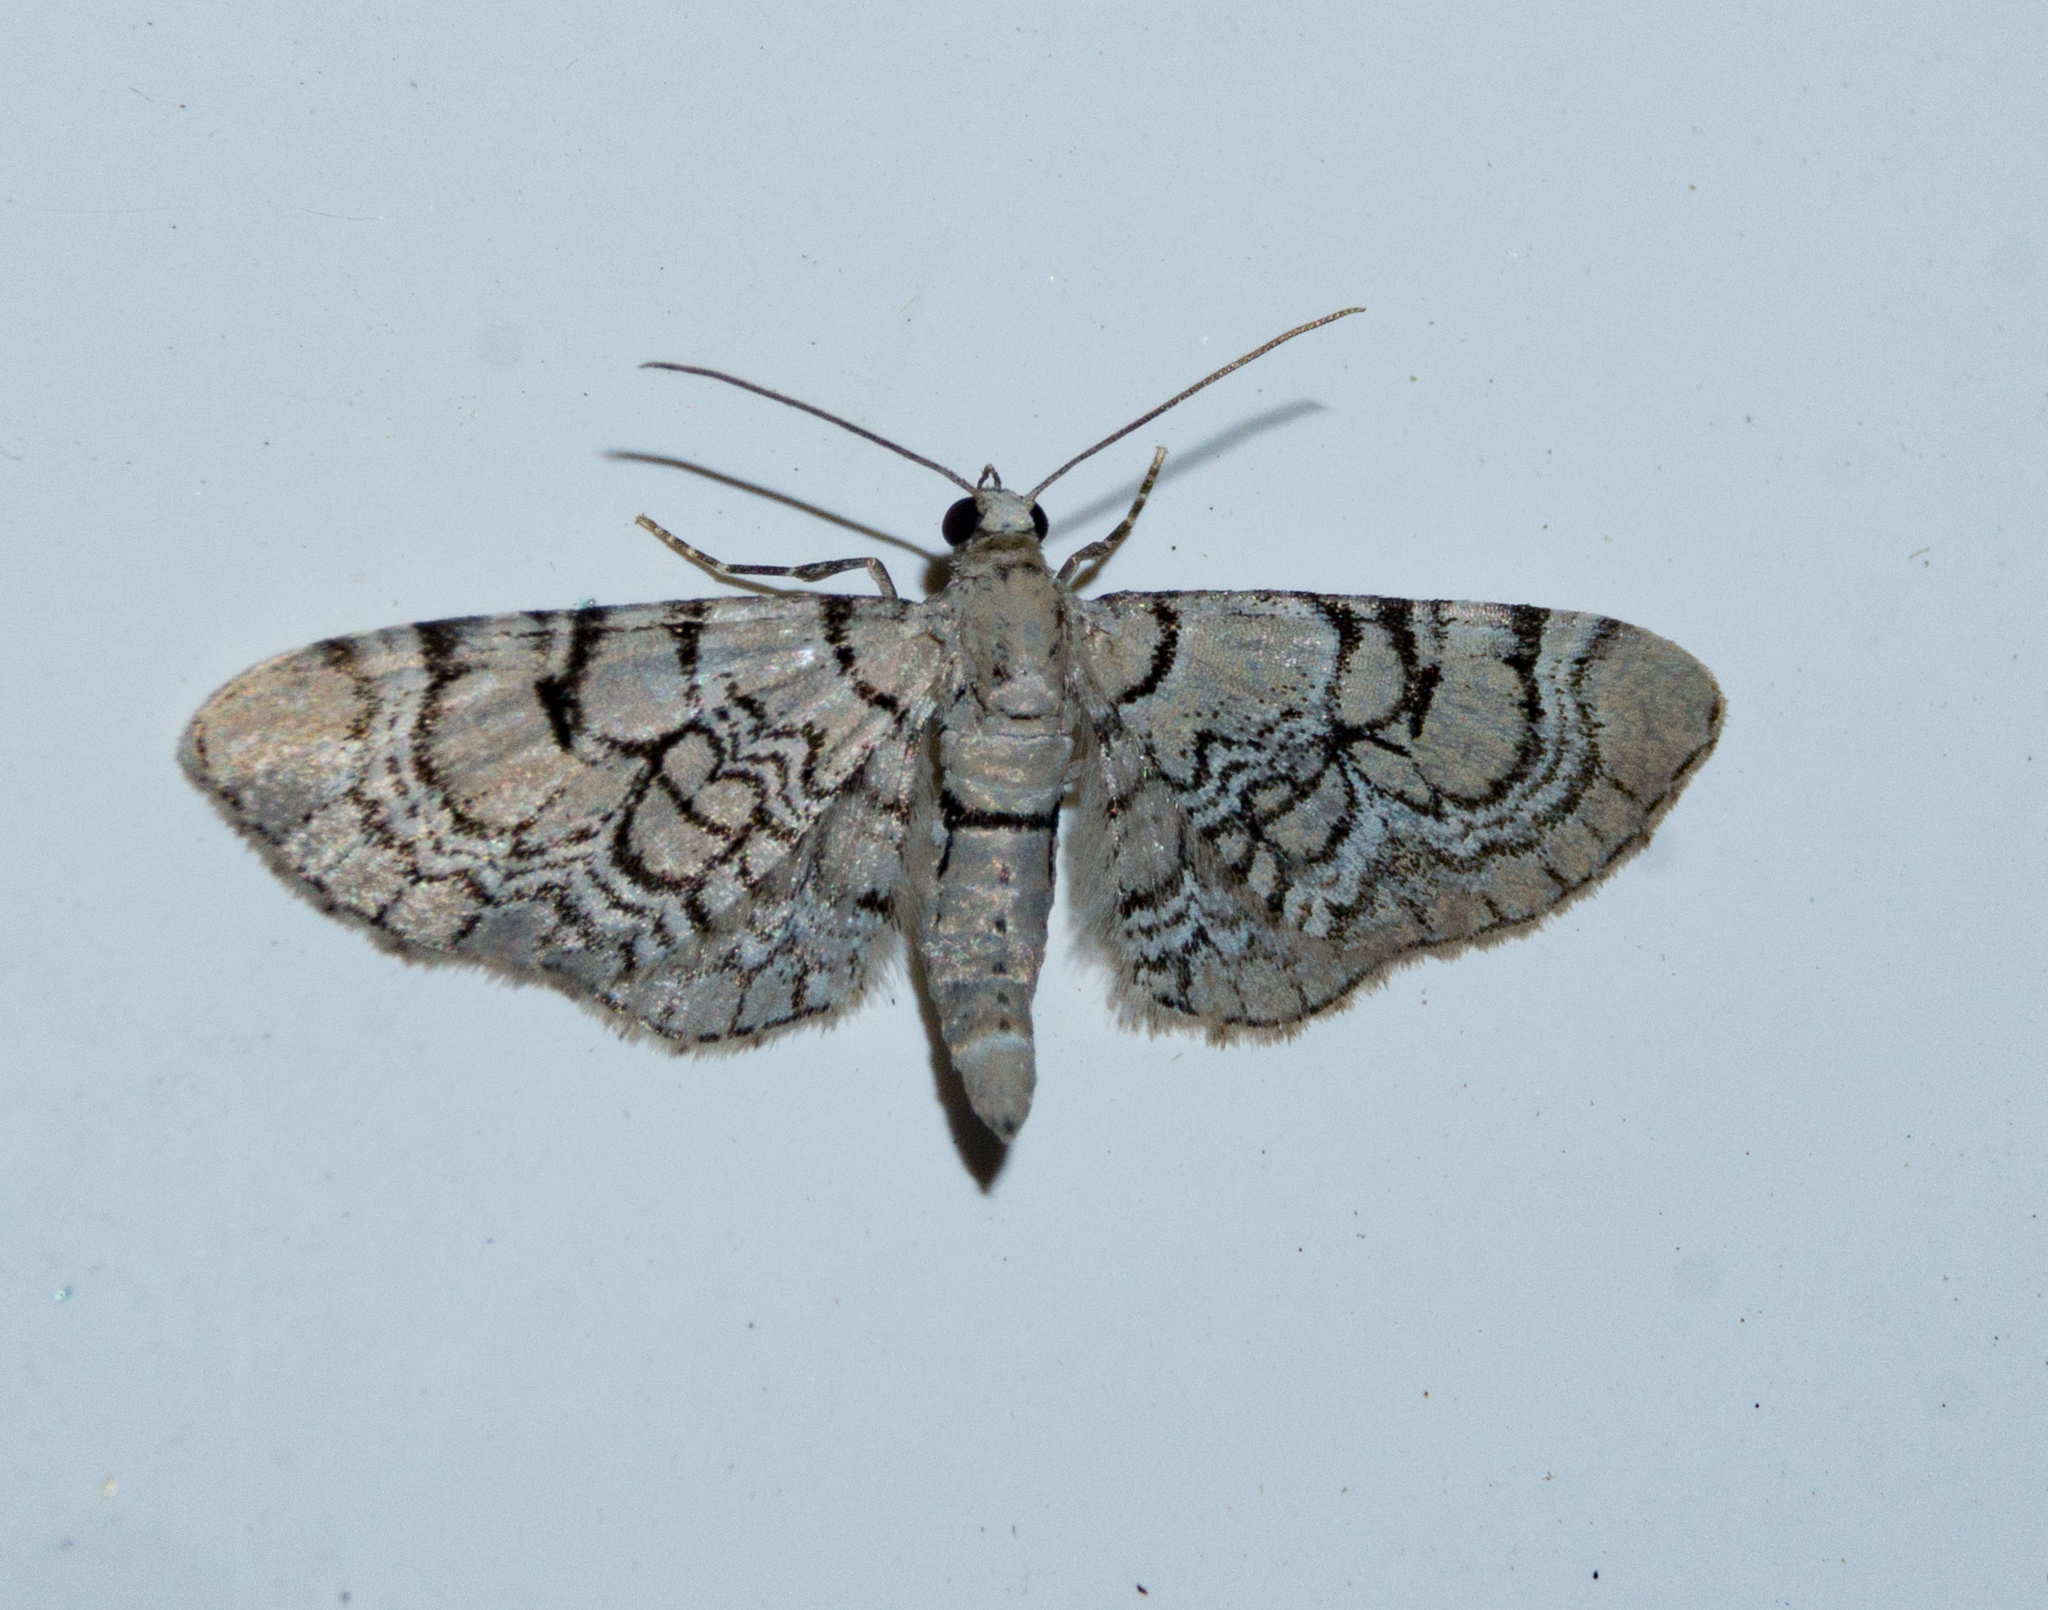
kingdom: Animalia
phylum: Arthropoda
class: Insecta
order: Lepidoptera
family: Geometridae
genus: Eupithecia
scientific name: Eupithecia venosata
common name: Netted pug
